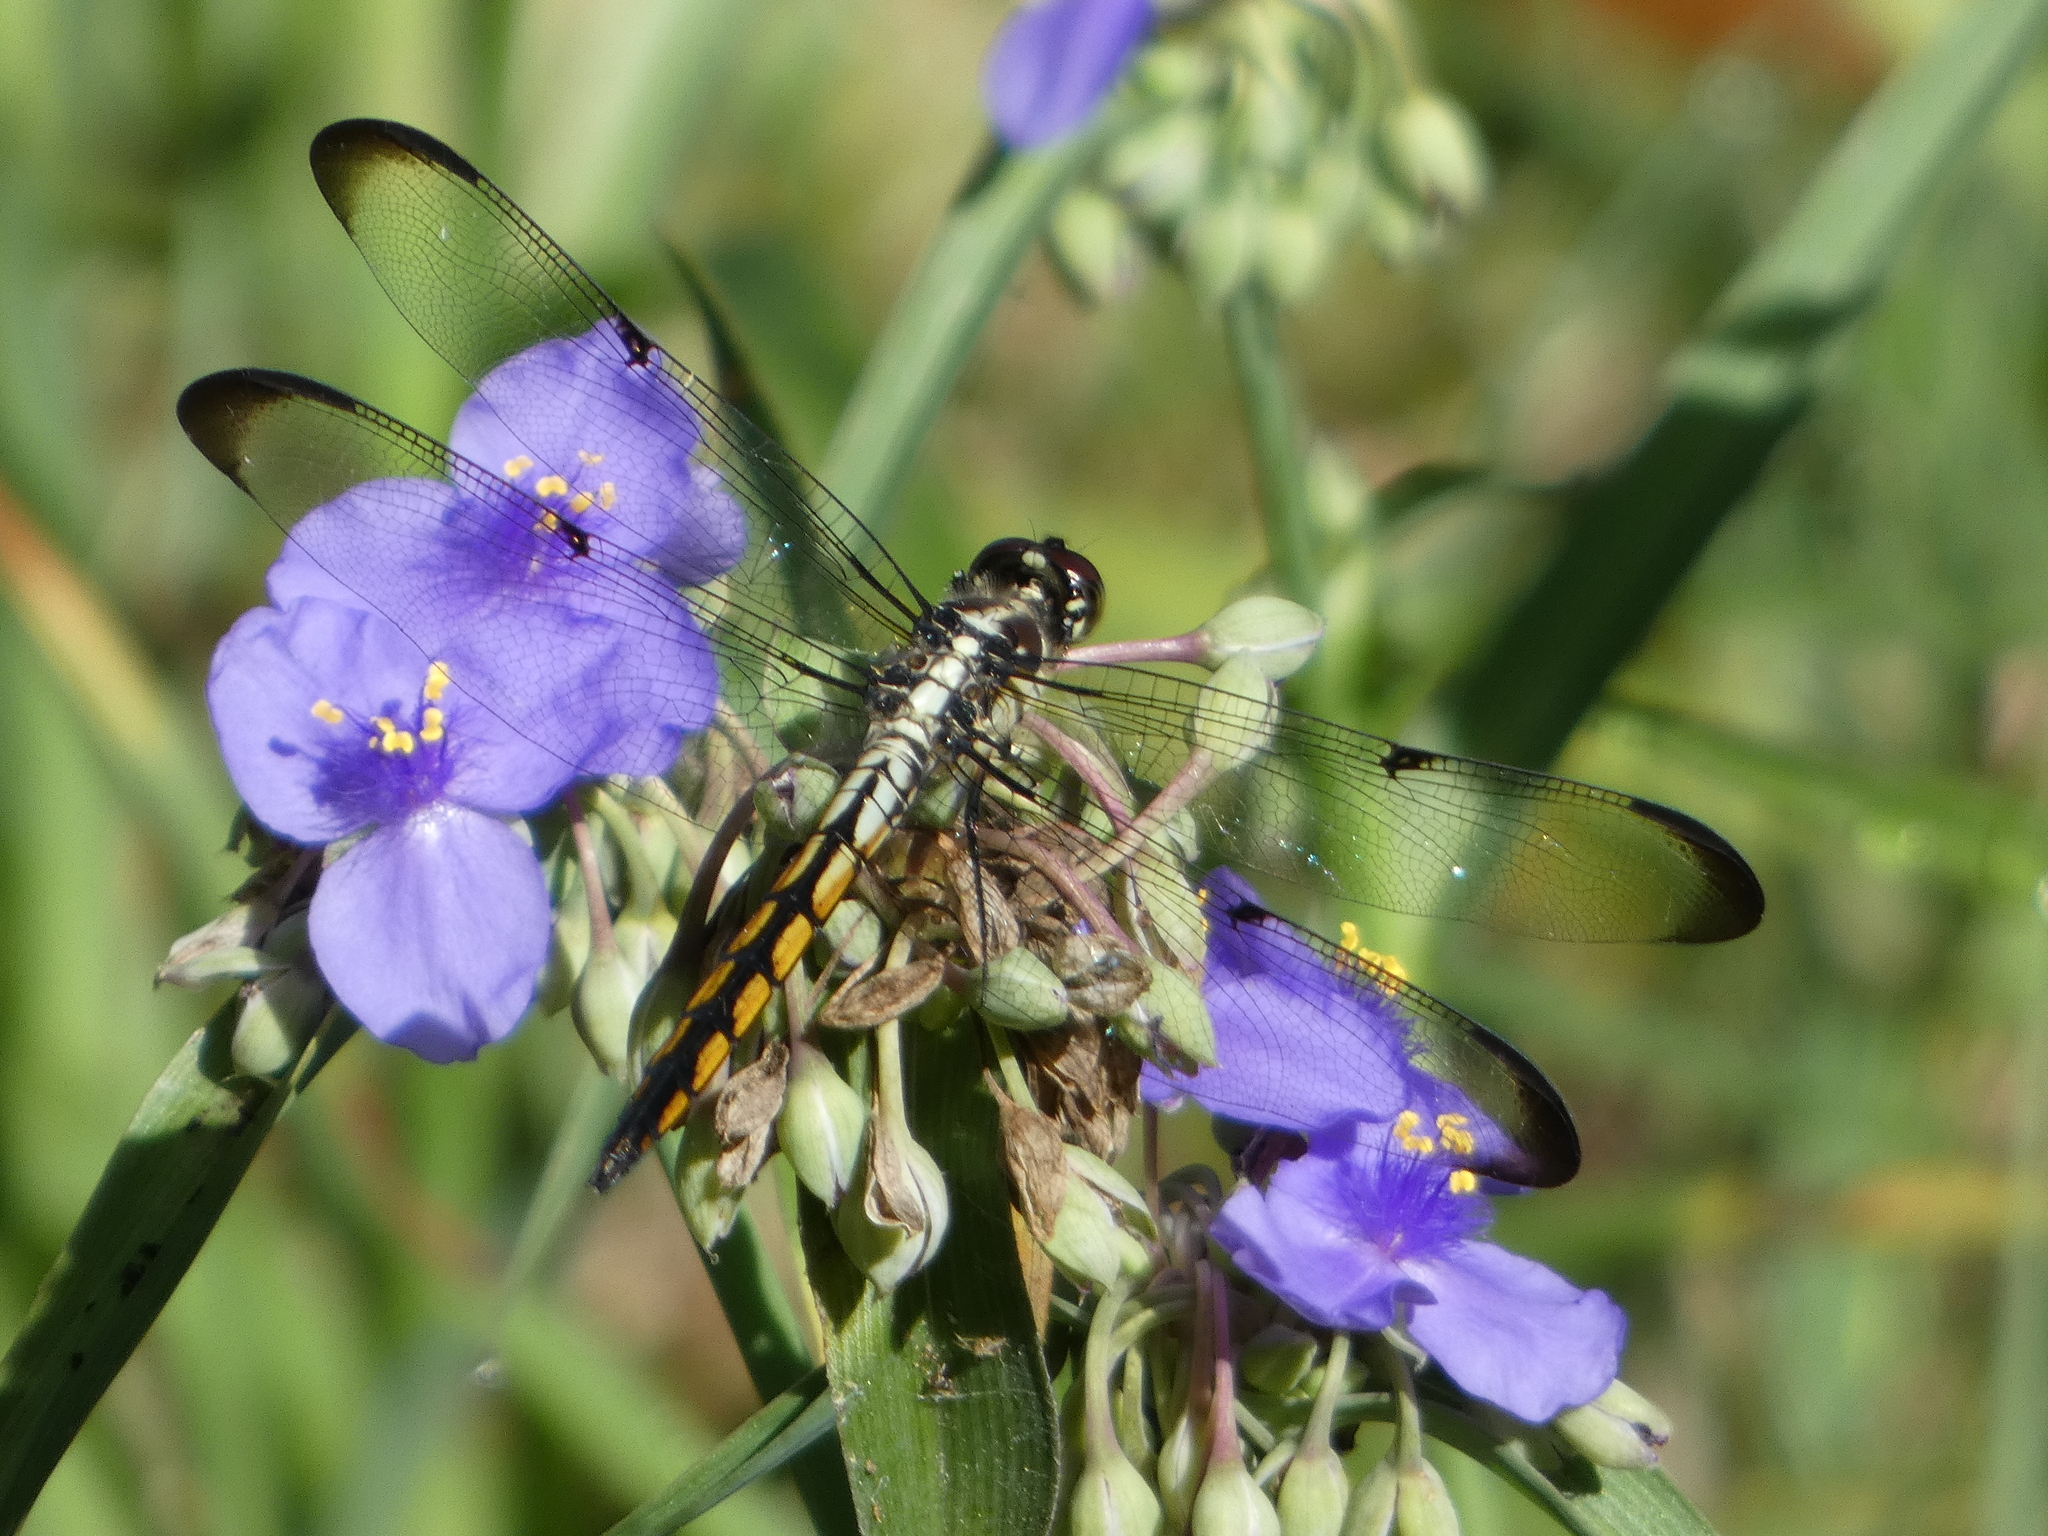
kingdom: Animalia
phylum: Arthropoda
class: Insecta
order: Odonata
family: Libellulidae
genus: Libellula
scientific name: Libellula vibrans
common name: Great blue skimmer
